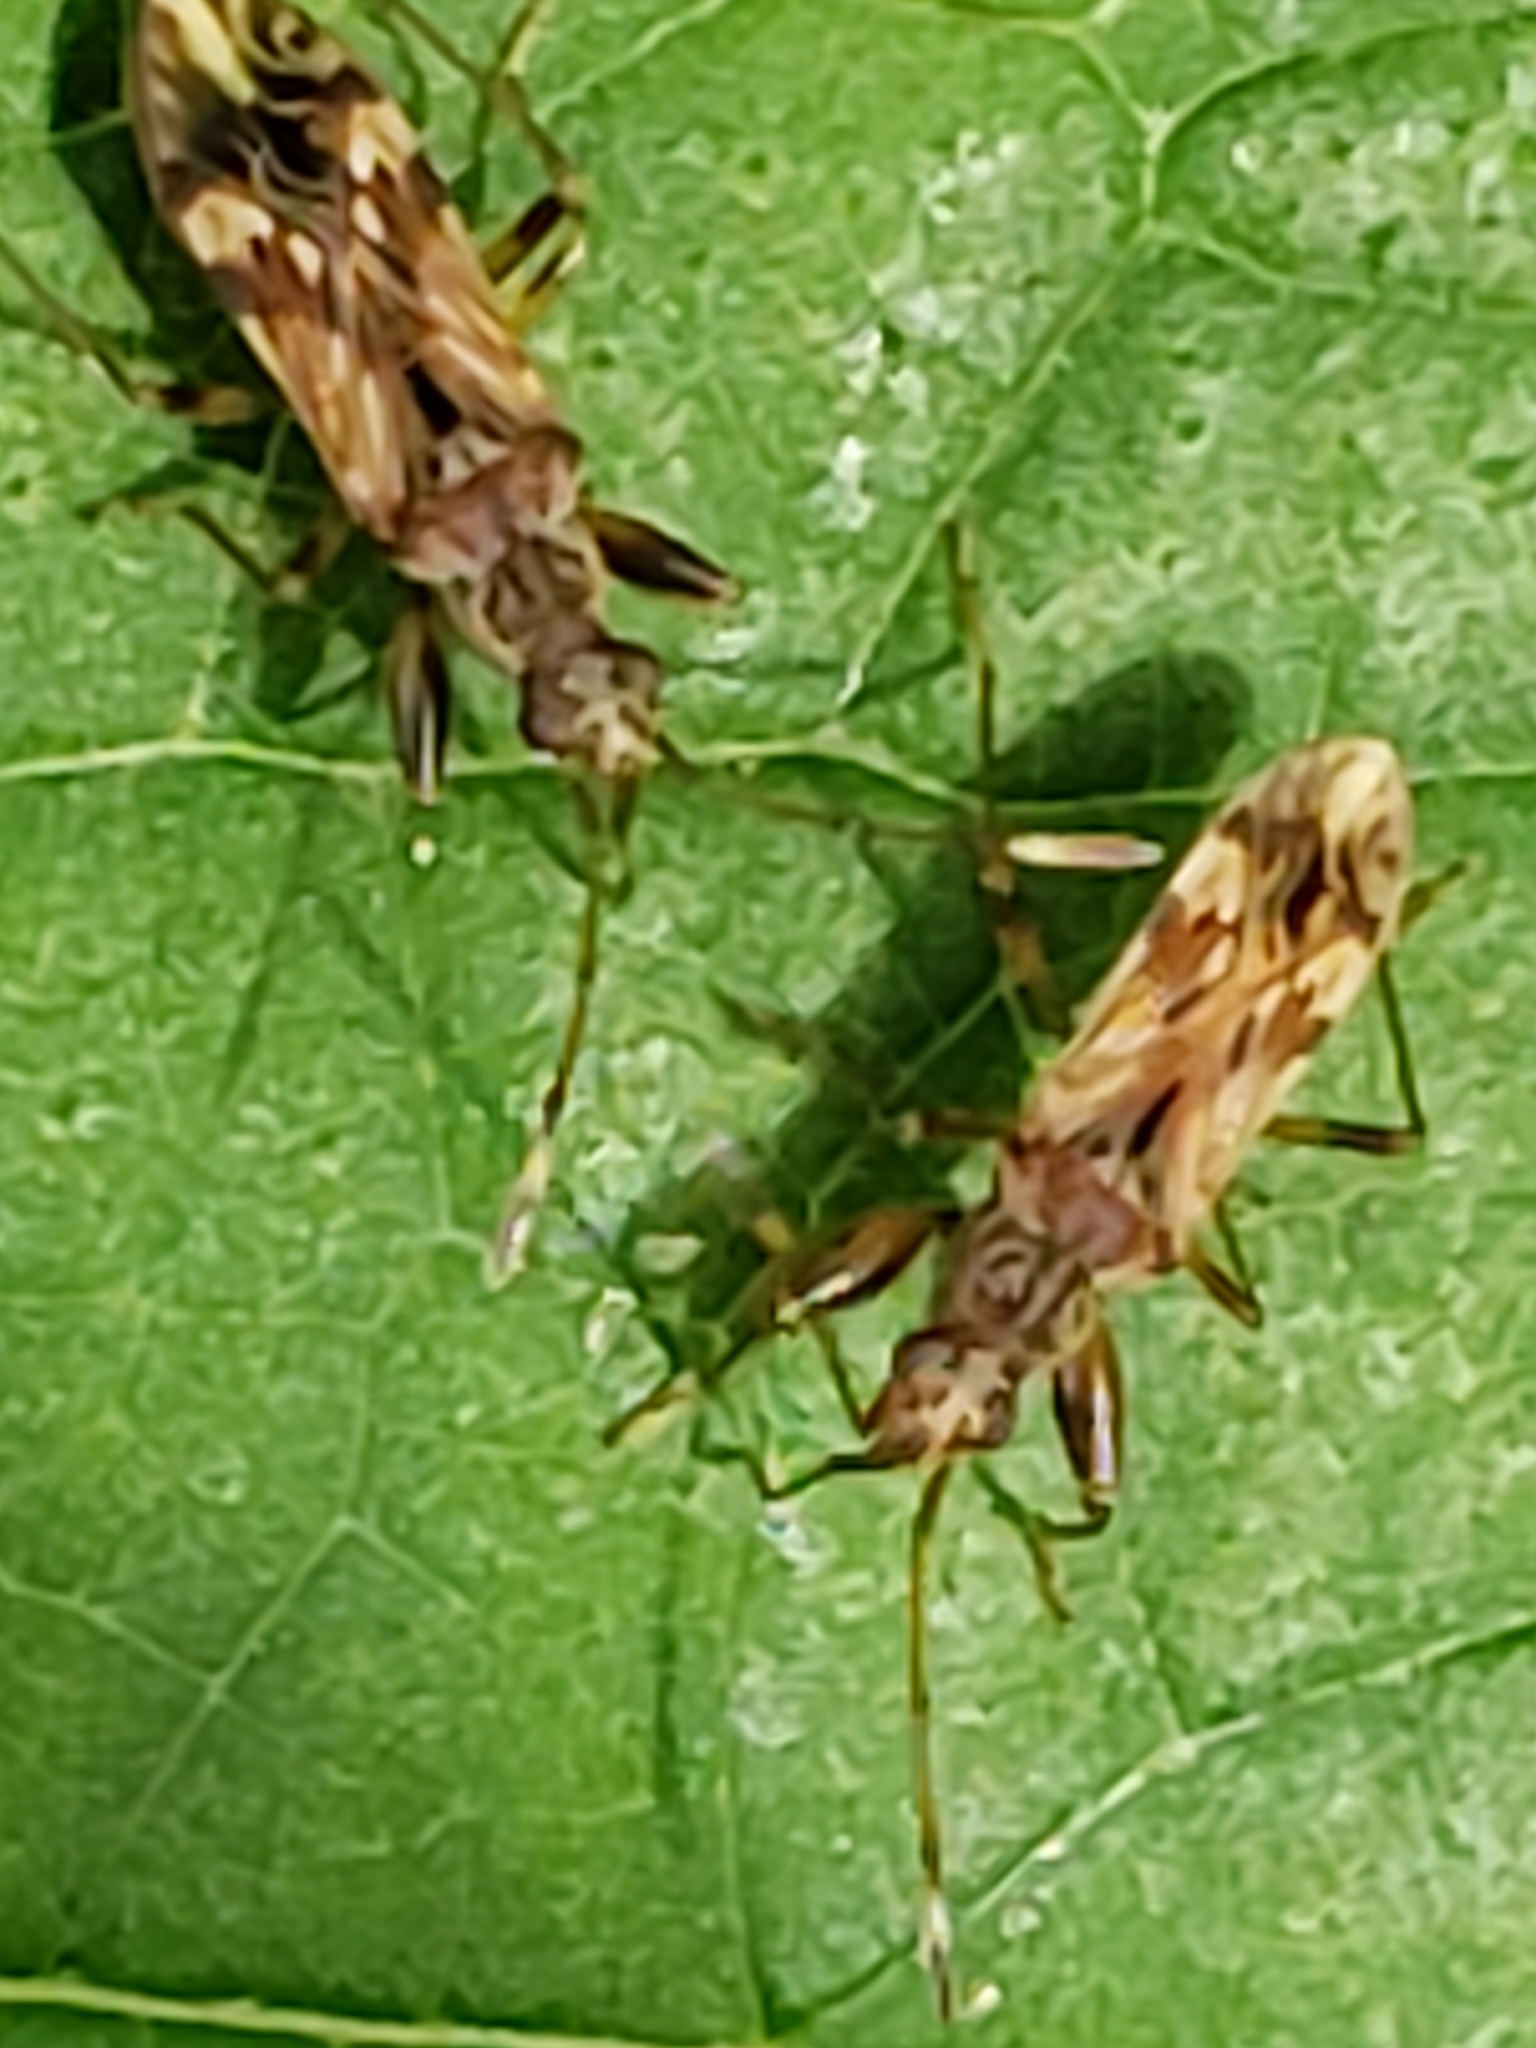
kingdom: Animalia
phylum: Arthropoda
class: Insecta
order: Hemiptera
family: Rhyparochromidae
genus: Neopamera
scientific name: Neopamera albocincta
